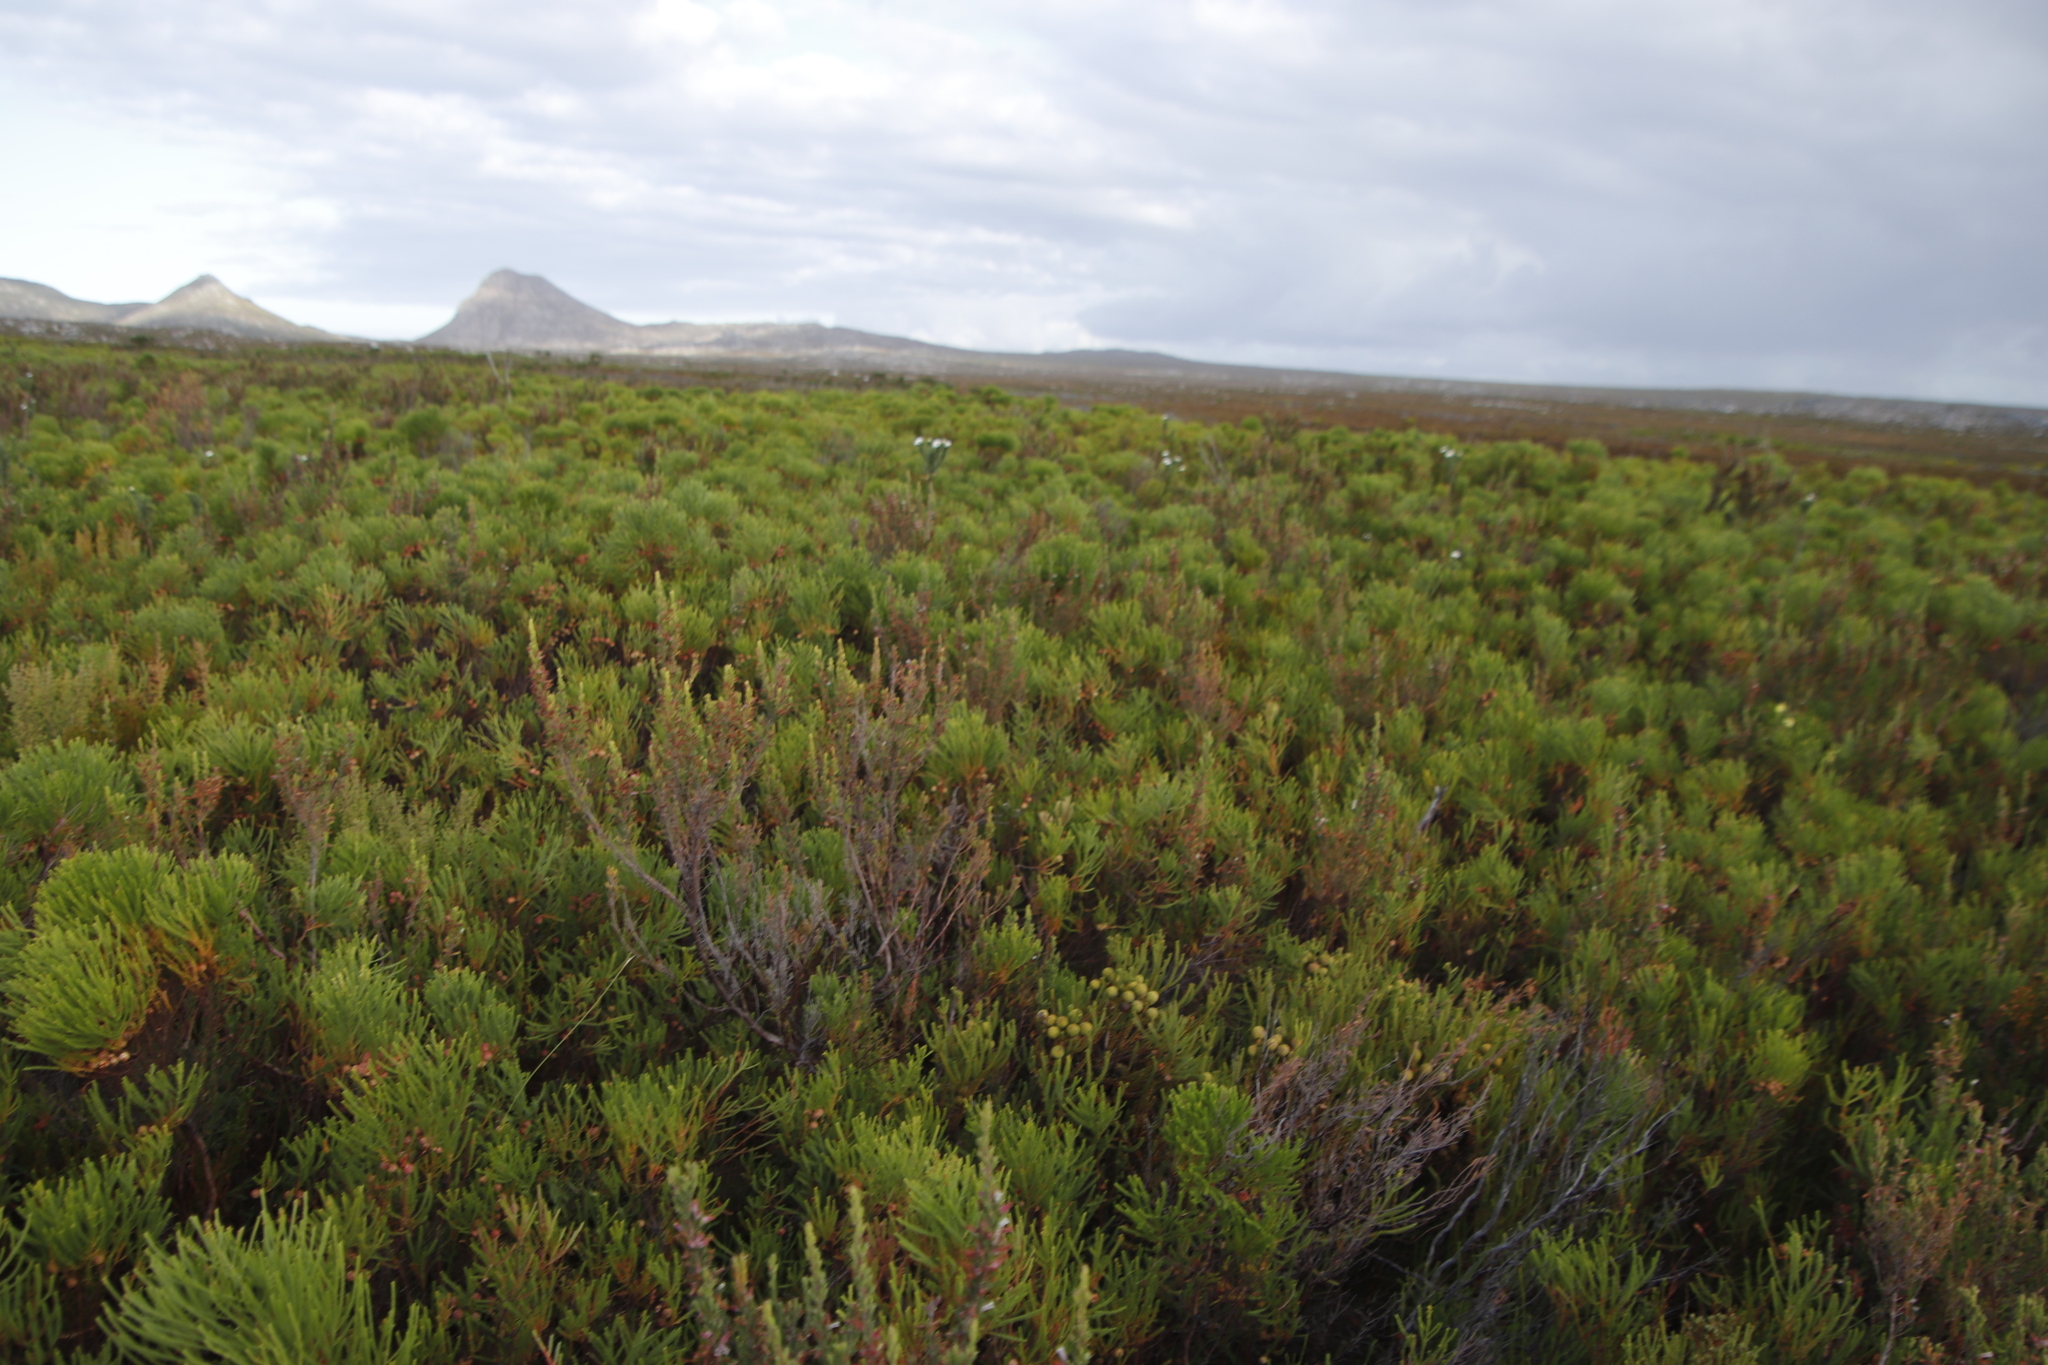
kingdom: Plantae
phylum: Tracheophyta
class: Magnoliopsida
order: Ericales
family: Ericaceae
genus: Erica
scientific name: Erica fontana
